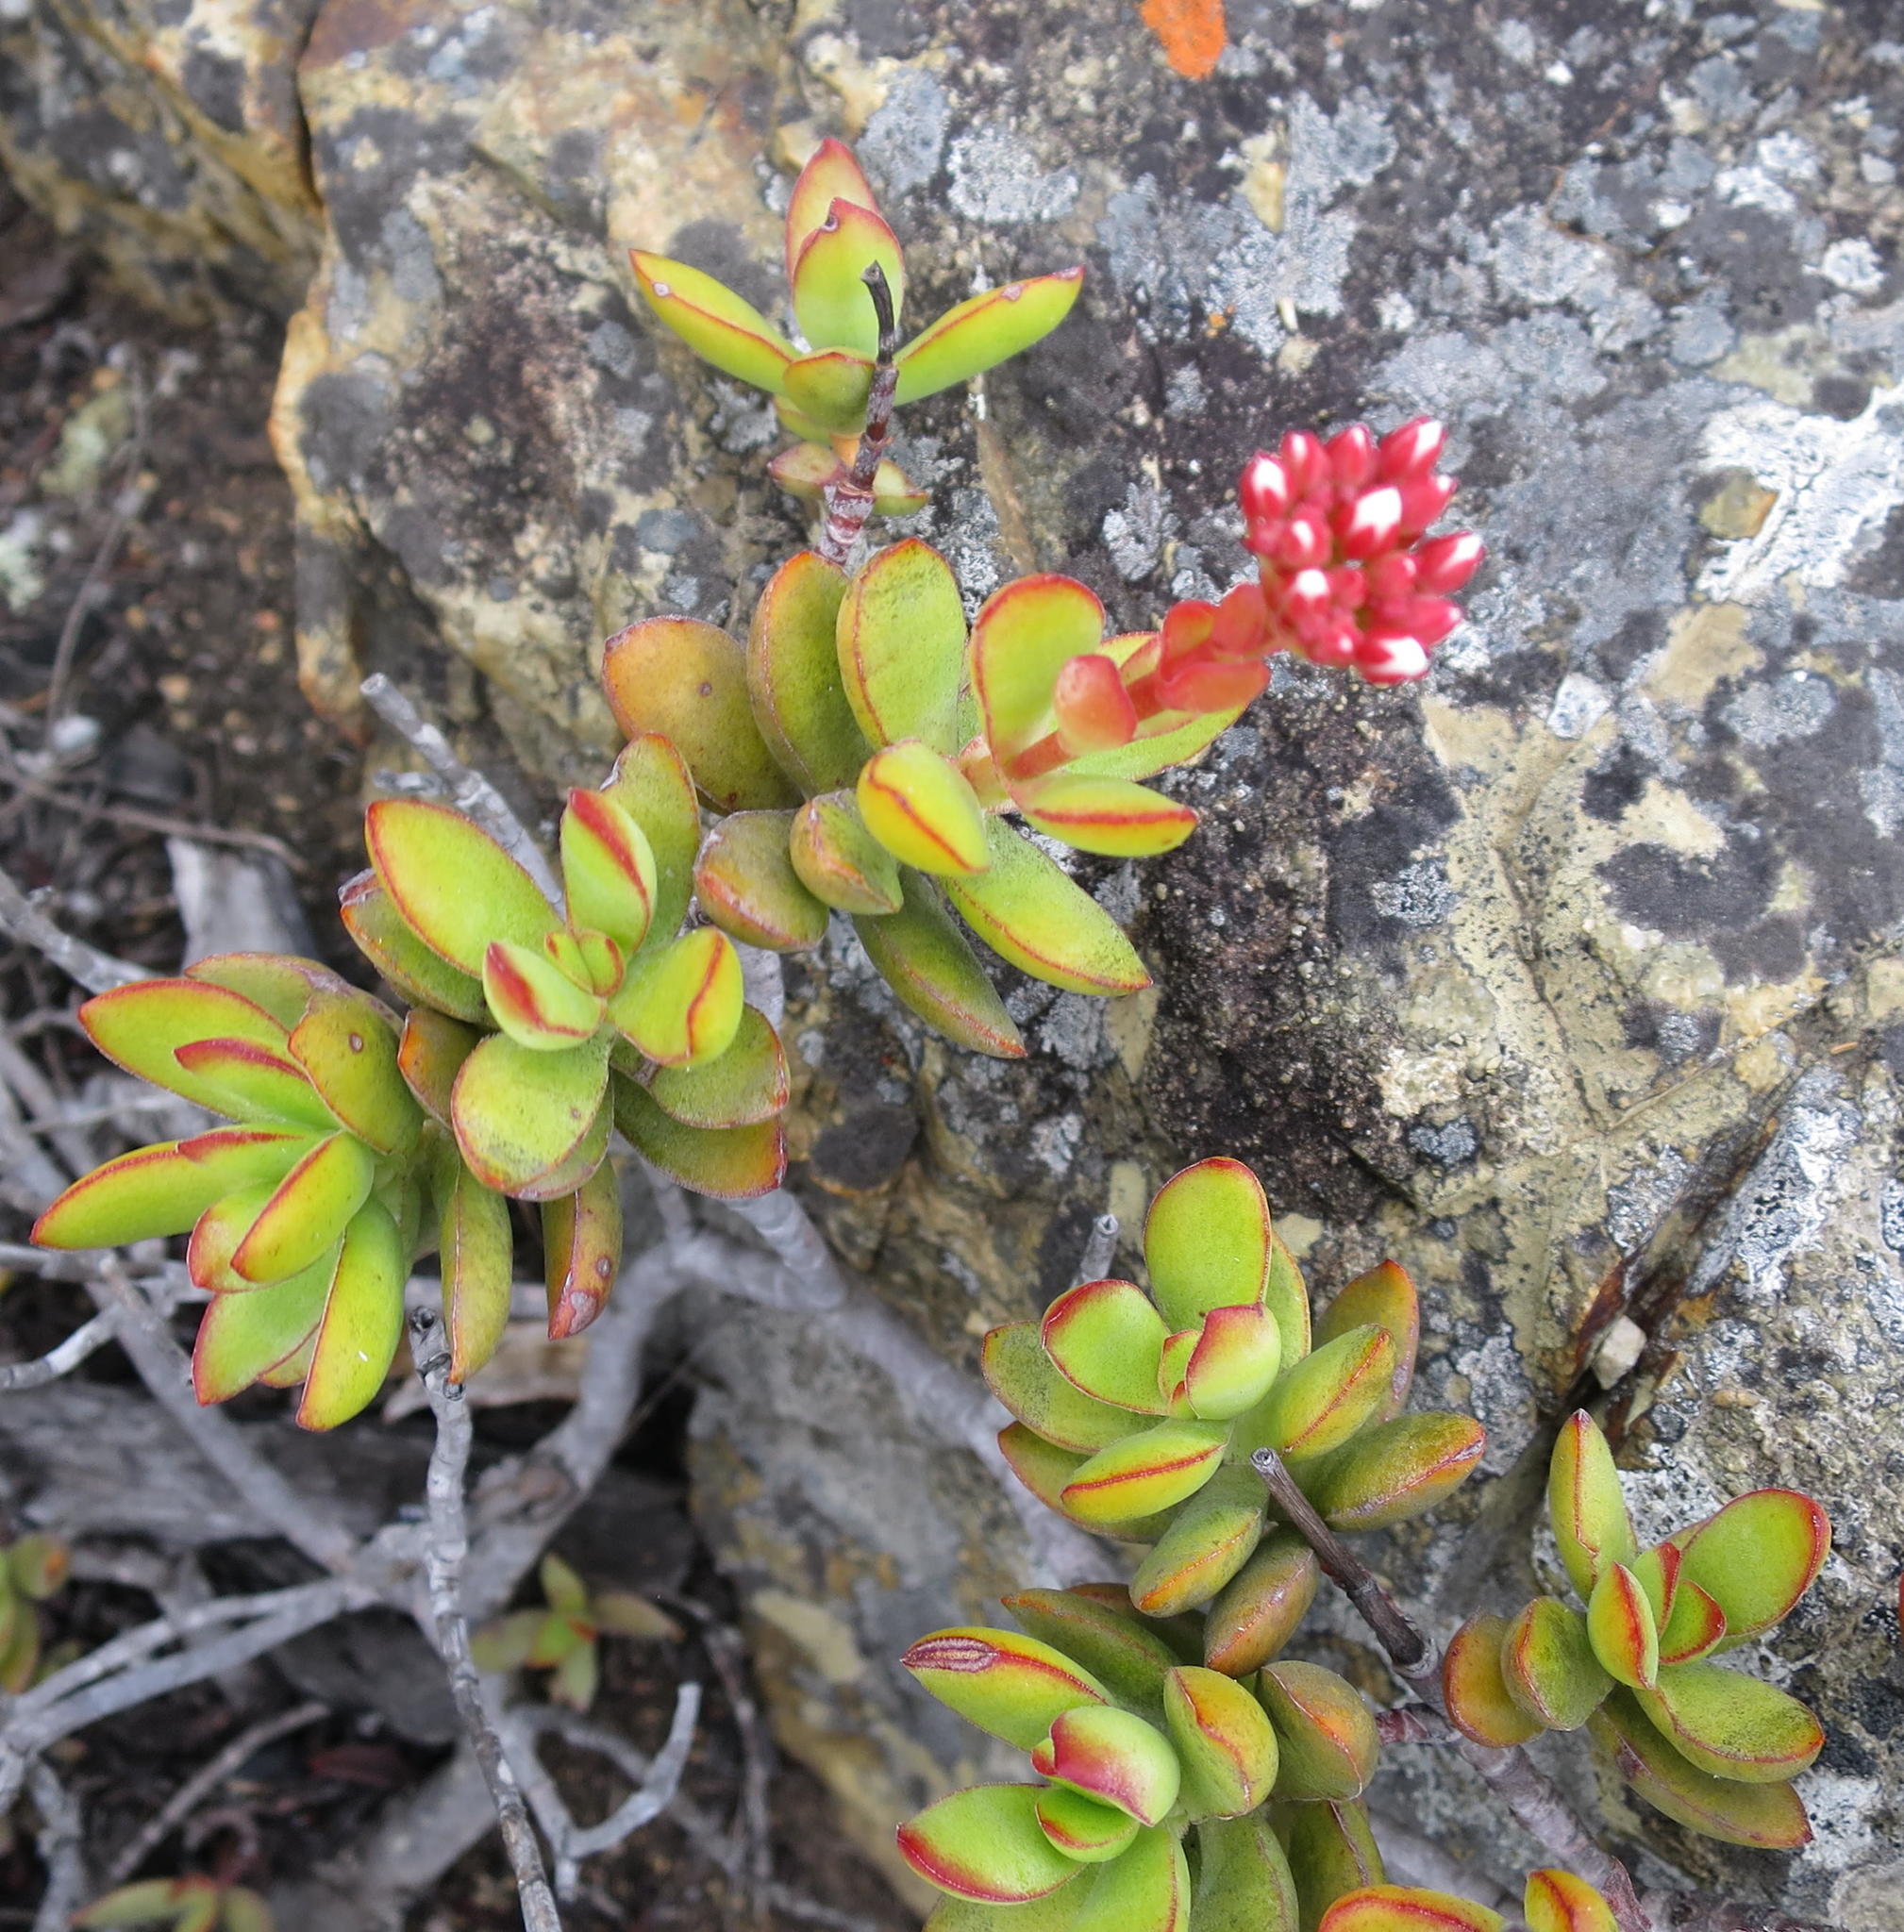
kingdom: Plantae
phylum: Tracheophyta
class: Magnoliopsida
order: Saxifragales
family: Crassulaceae
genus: Crassula
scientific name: Crassula rubricaulis
